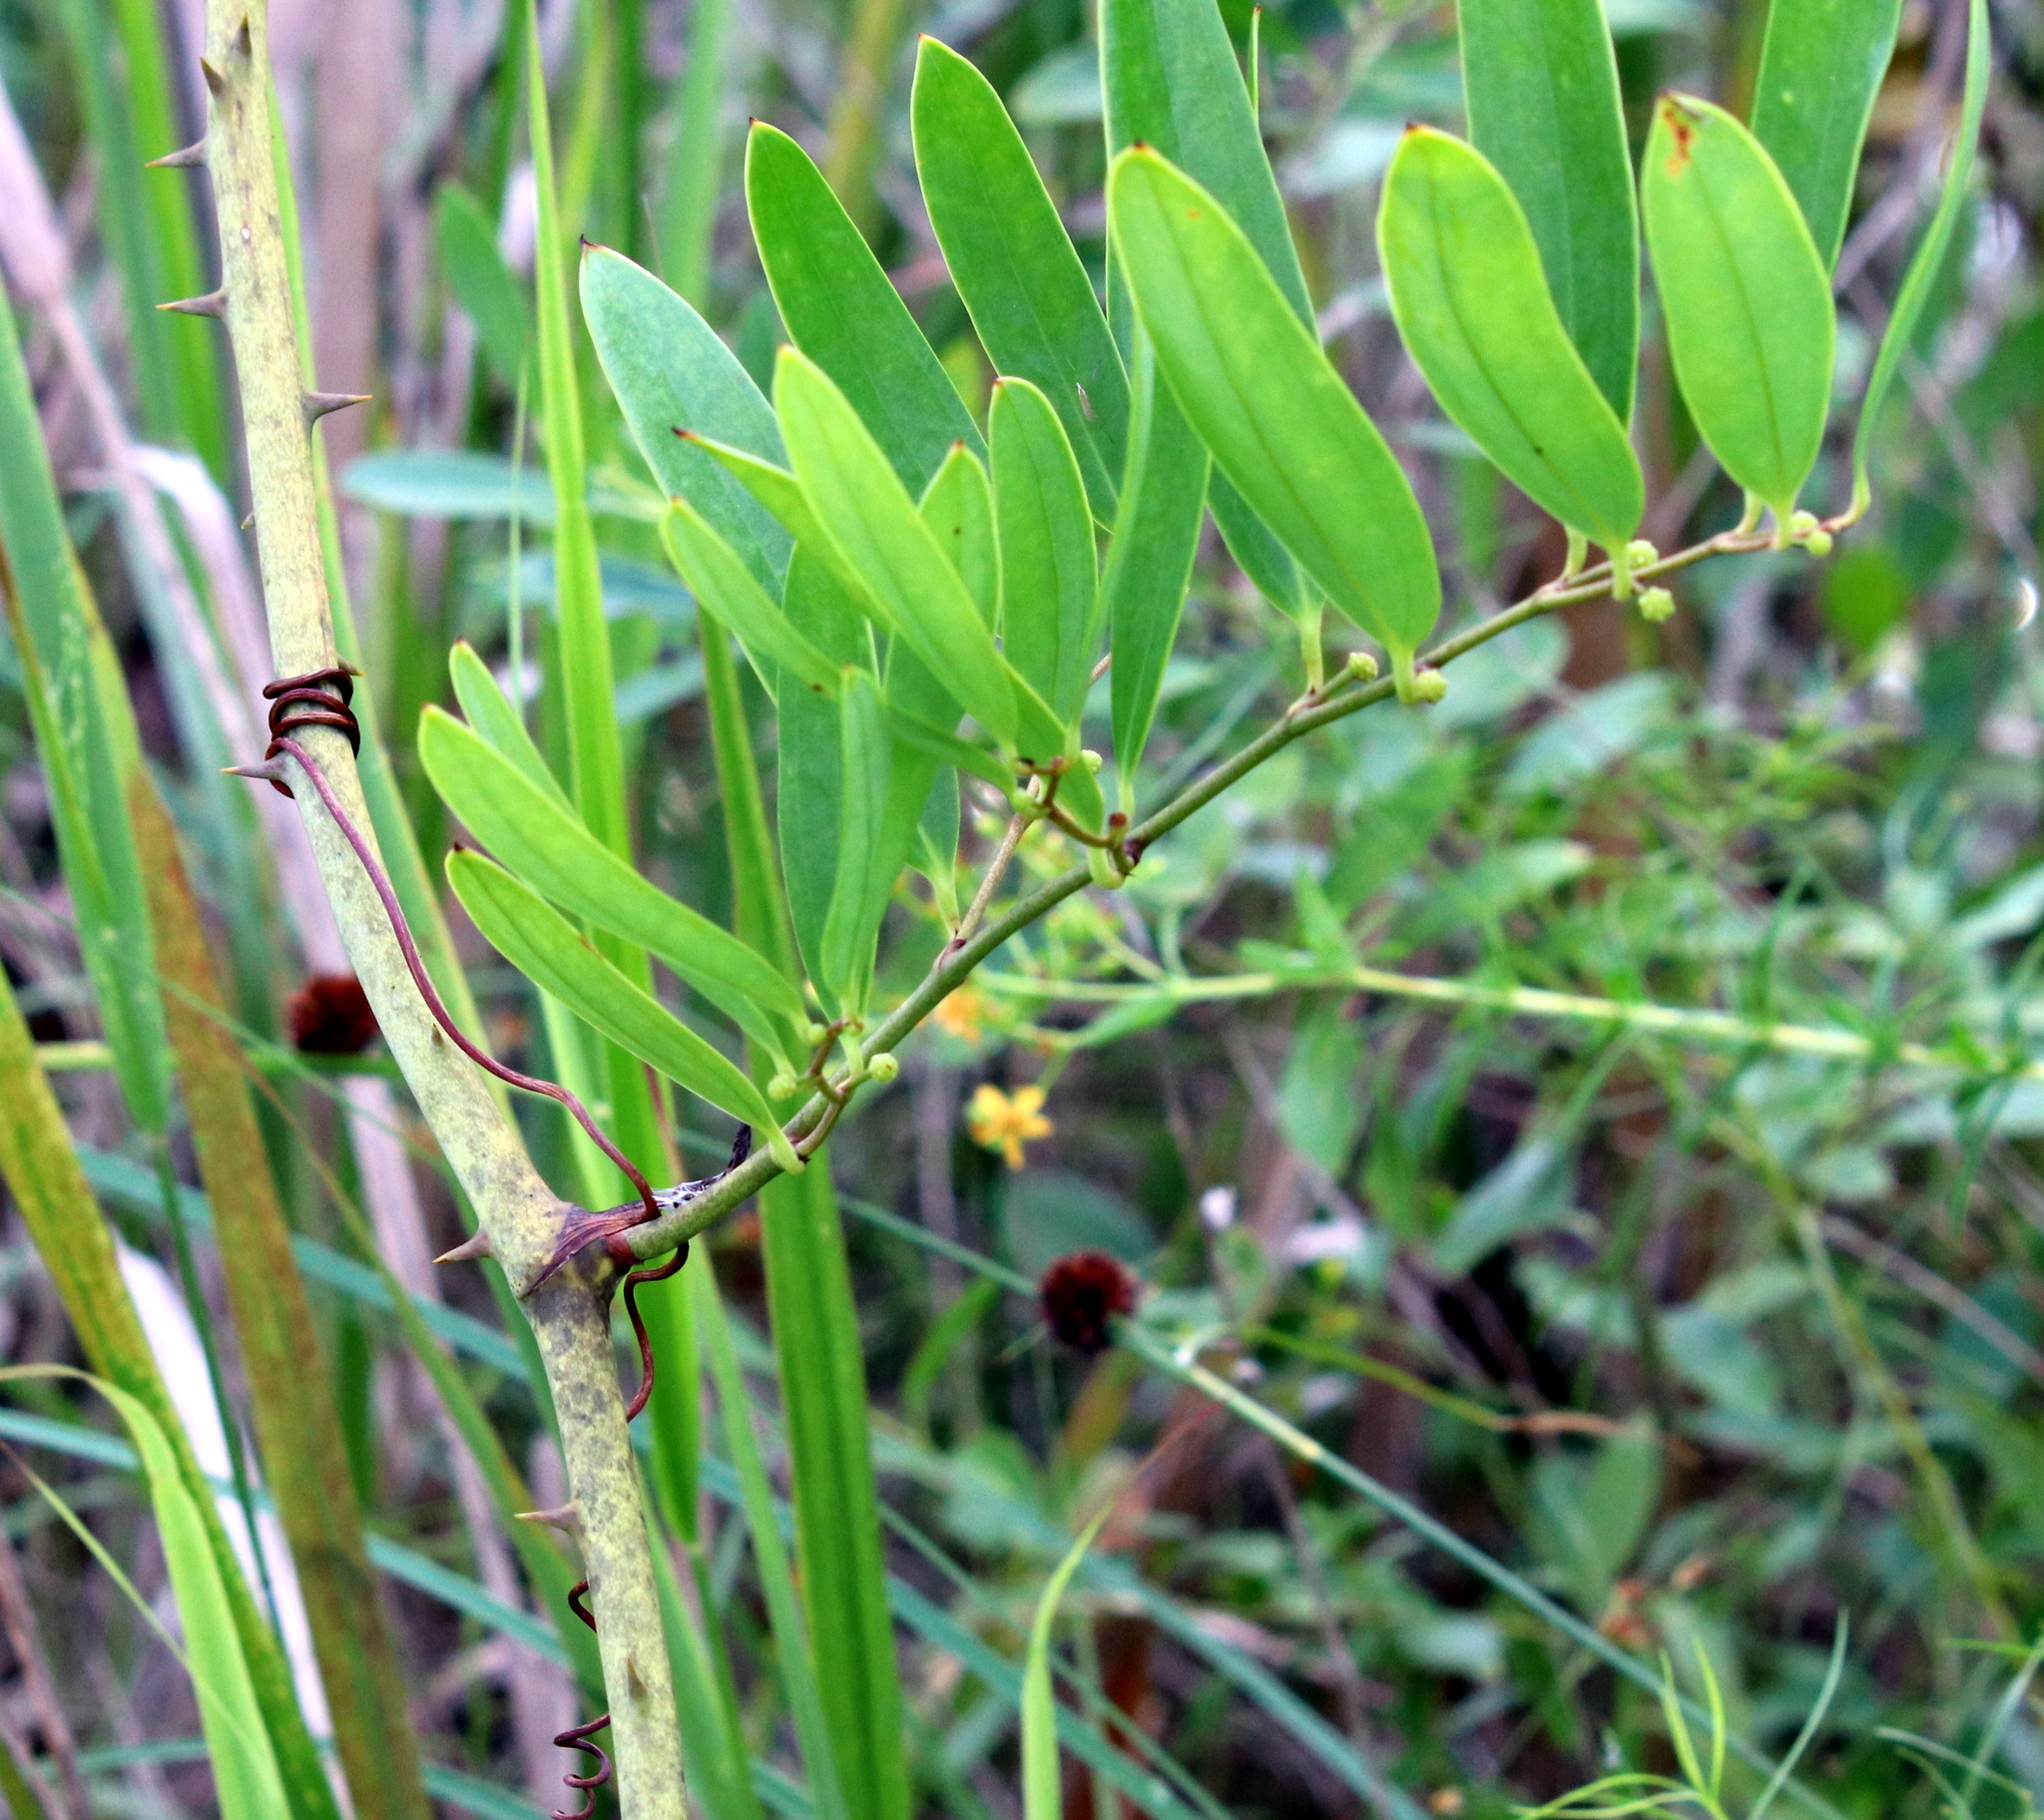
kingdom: Plantae
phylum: Tracheophyta
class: Liliopsida
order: Liliales
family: Smilacaceae
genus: Smilax
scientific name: Smilax laurifolia
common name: Bamboovine
